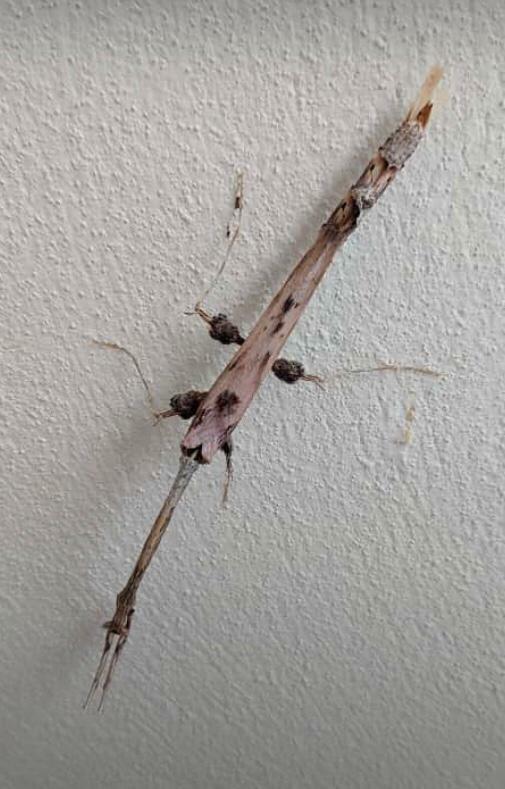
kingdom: Animalia
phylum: Arthropoda
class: Insecta
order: Mantodea
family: Toxoderidae
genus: Toxodera
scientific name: Toxodera maculata
